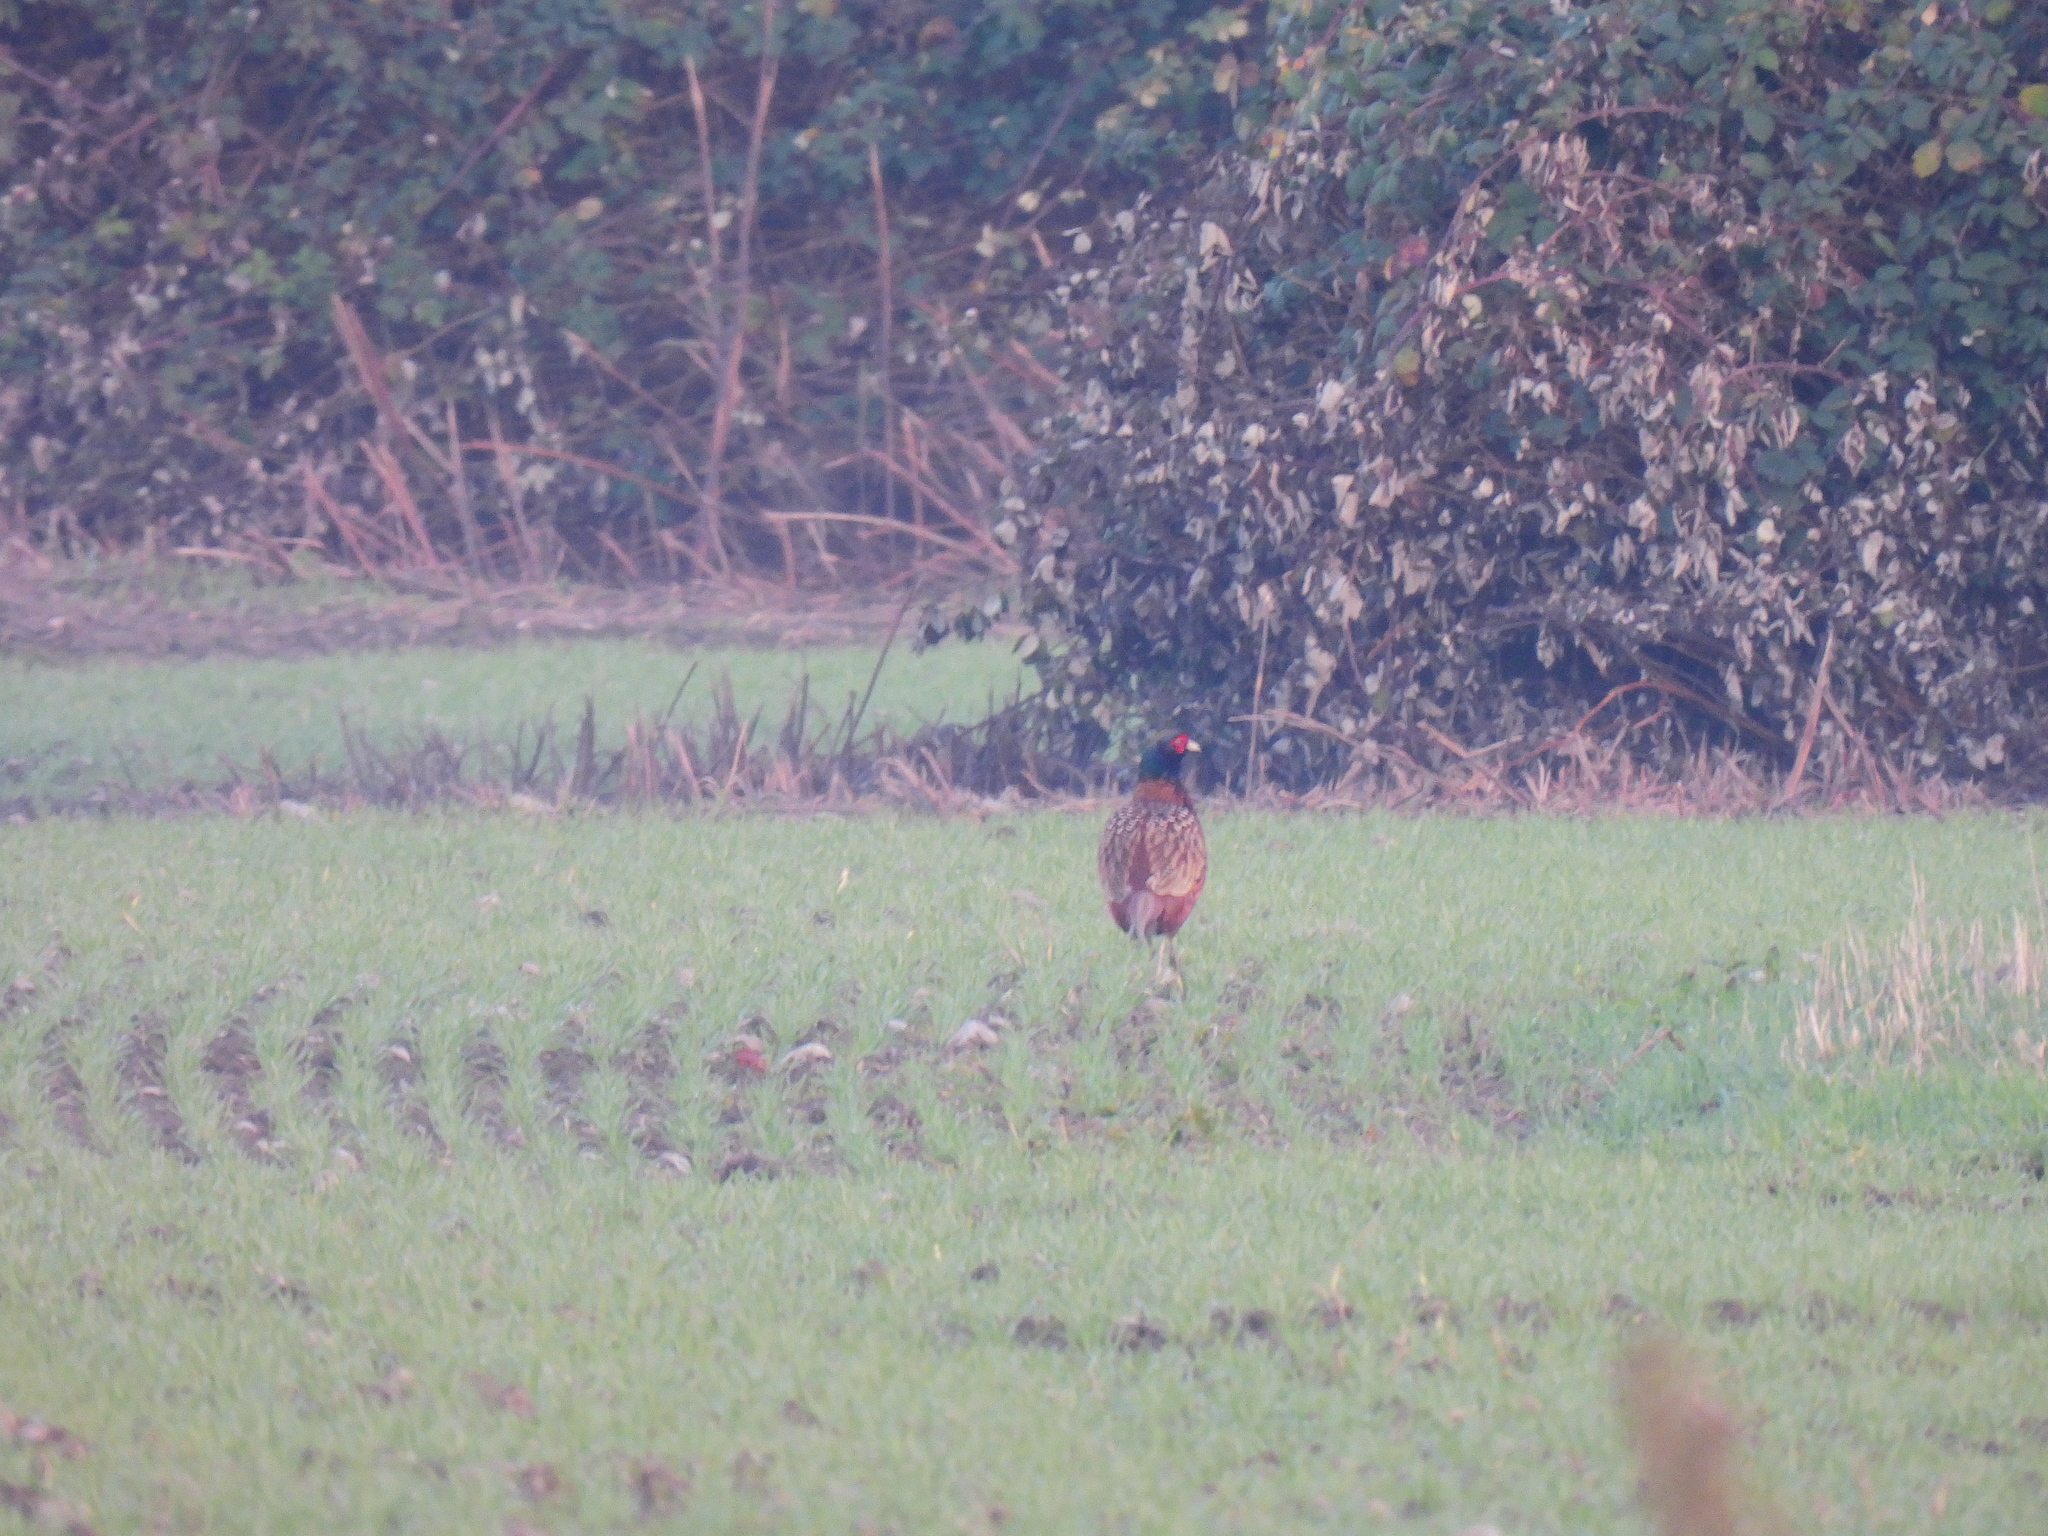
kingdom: Animalia
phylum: Chordata
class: Aves
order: Galliformes
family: Phasianidae
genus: Phasianus
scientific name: Phasianus colchicus
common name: Common pheasant
